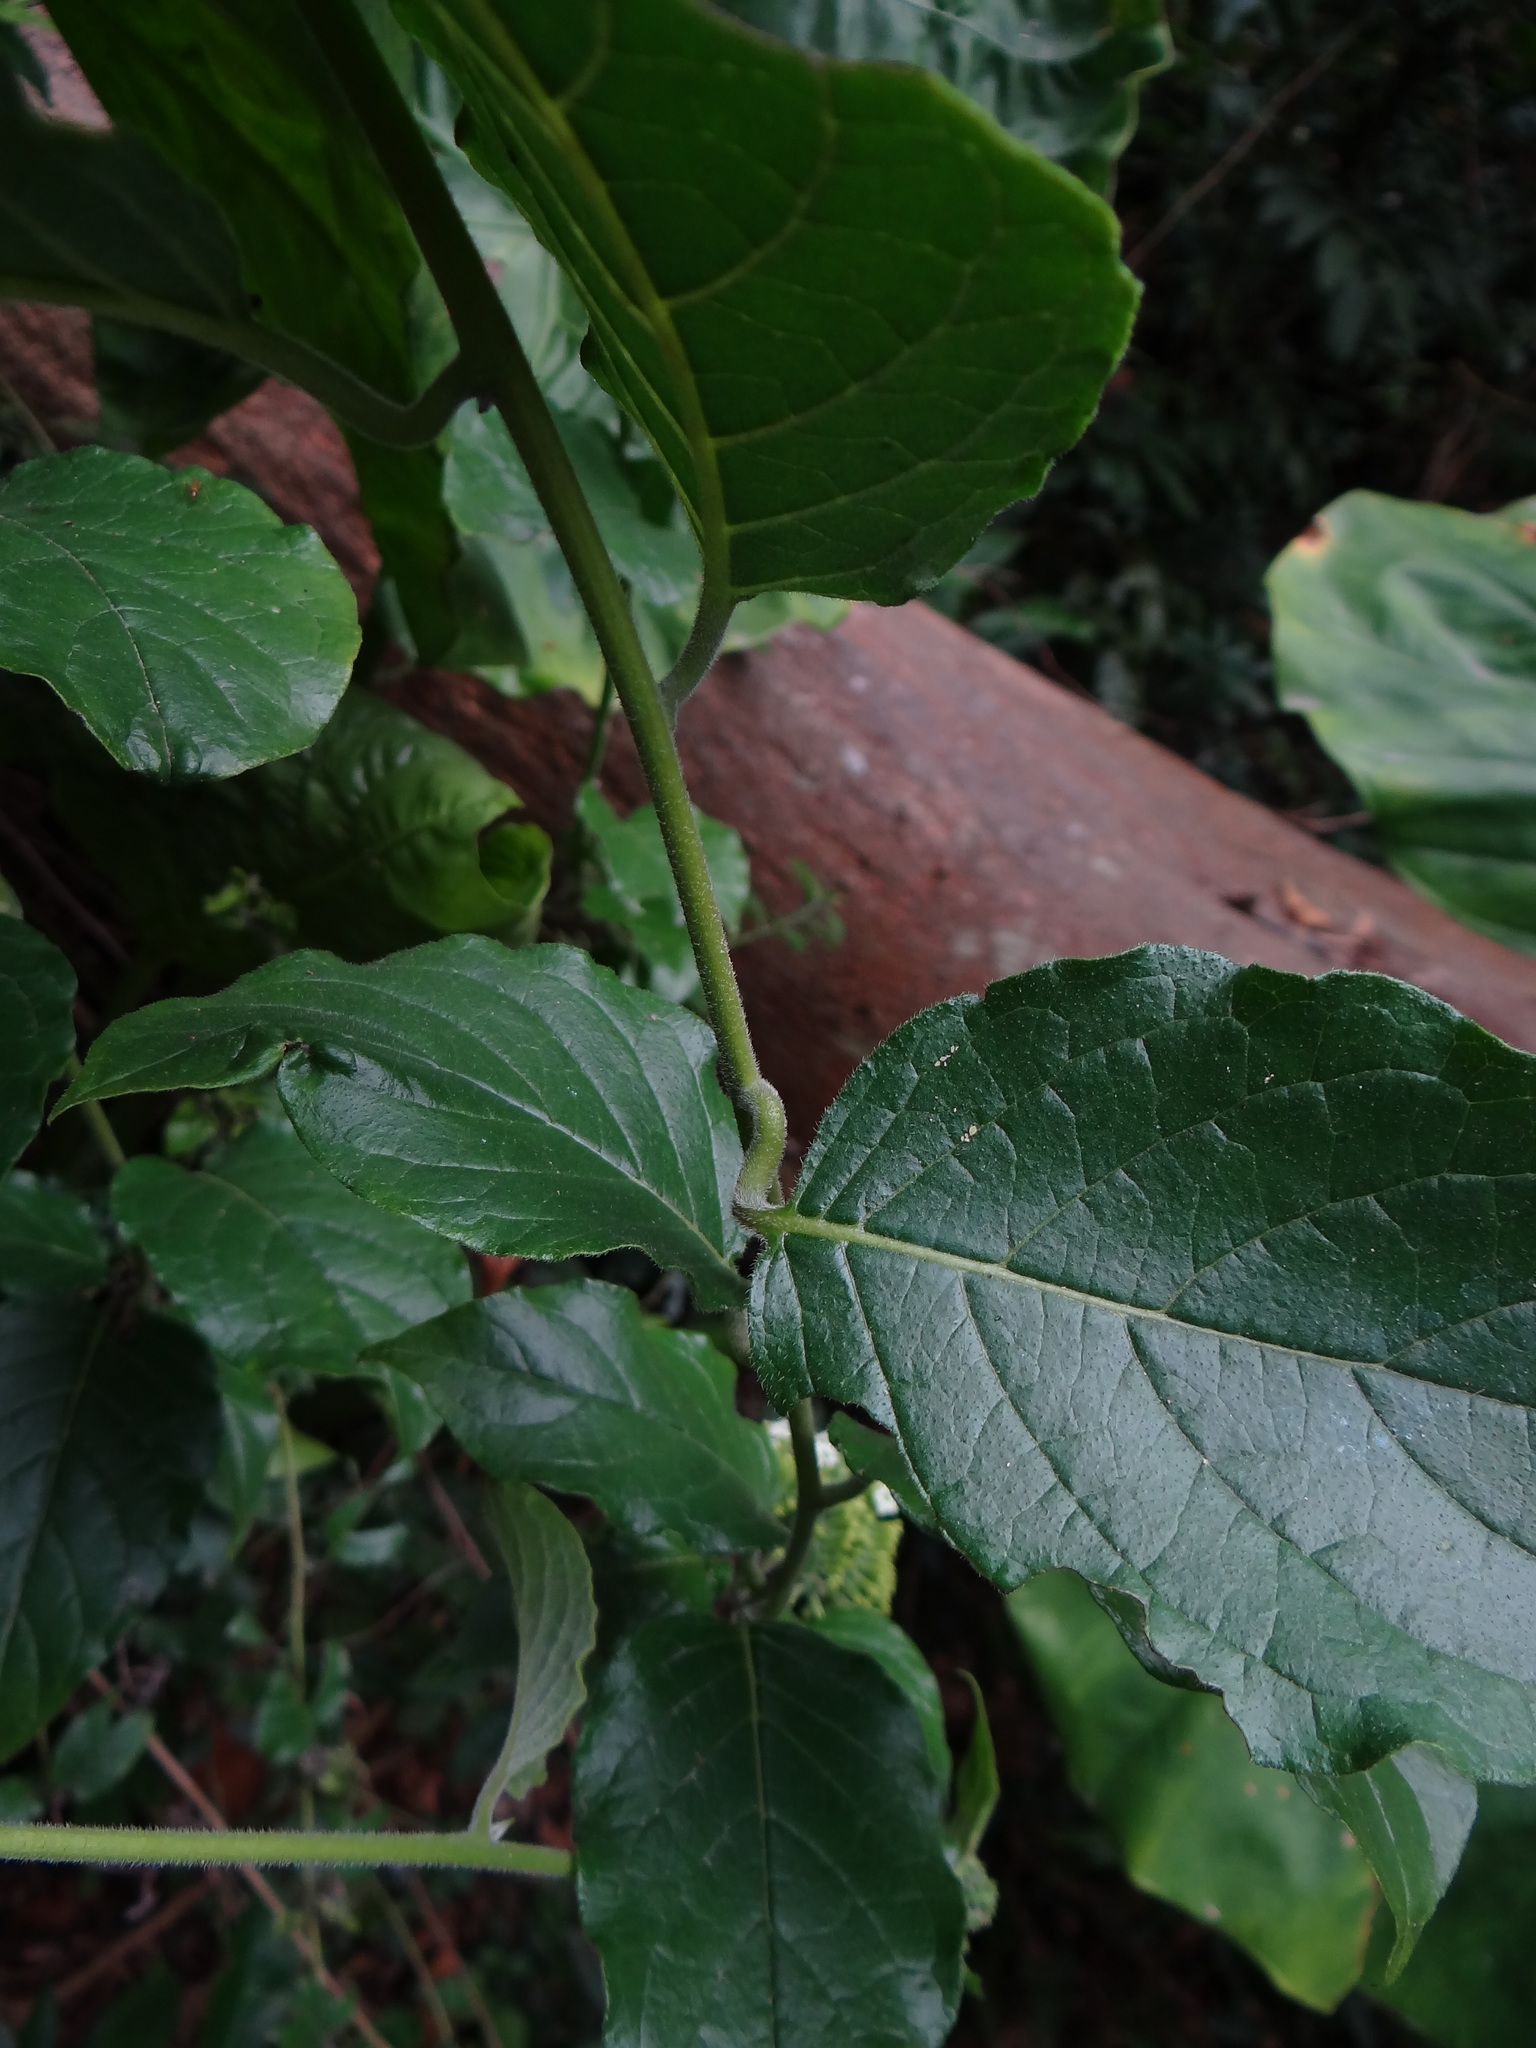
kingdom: Plantae
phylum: Tracheophyta
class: Magnoliopsida
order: Boraginales
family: Heliotropiaceae
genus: Heliotropium
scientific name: Heliotropium sarmentosum
